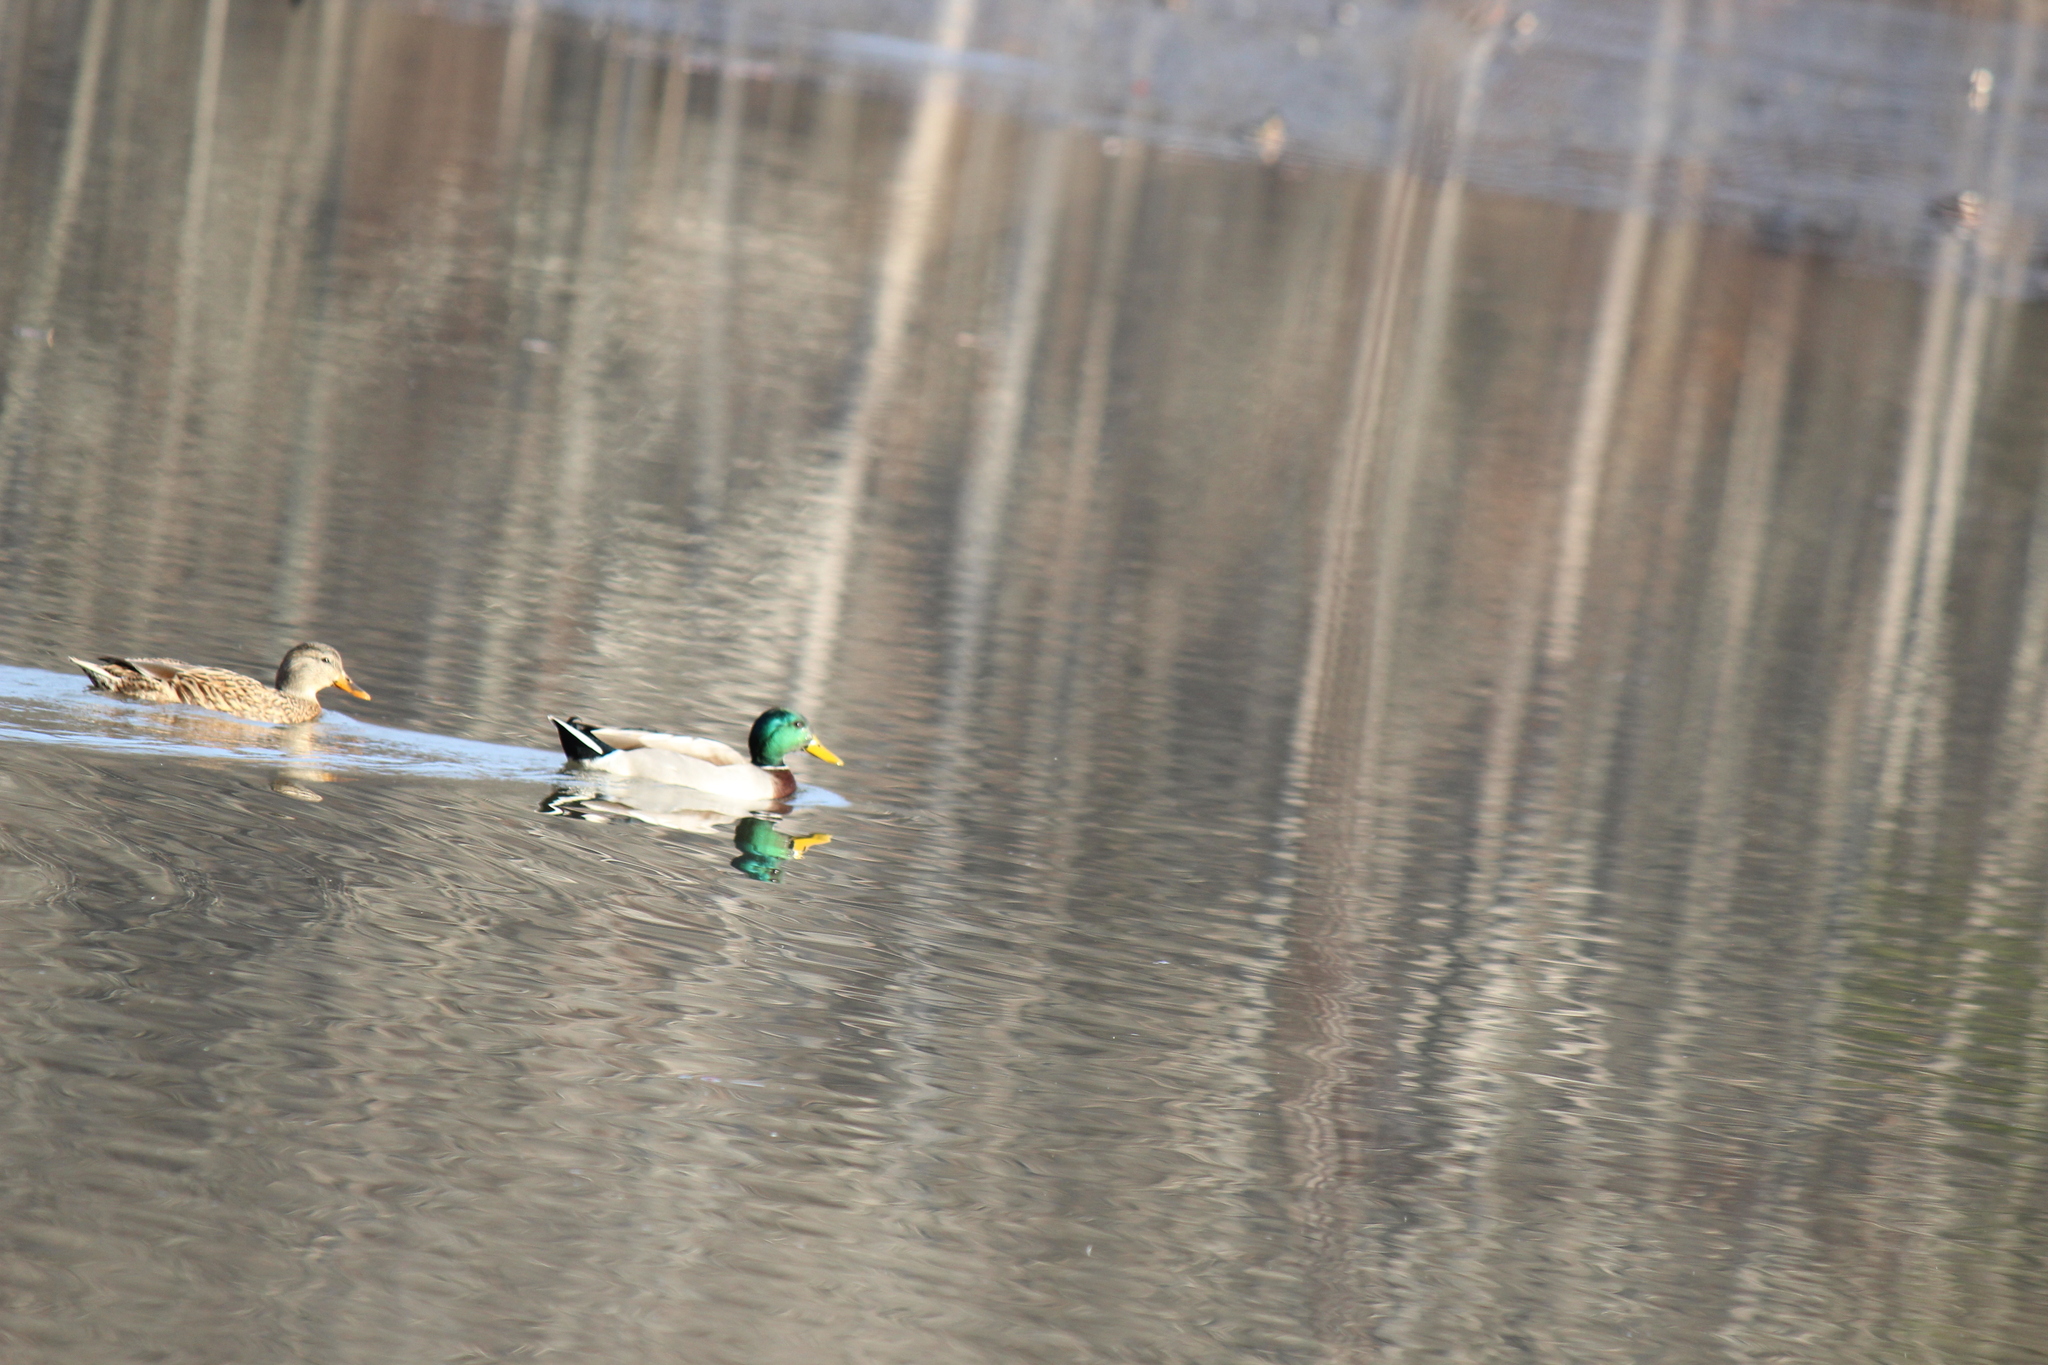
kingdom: Animalia
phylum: Chordata
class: Aves
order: Anseriformes
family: Anatidae
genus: Anas
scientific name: Anas platyrhynchos
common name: Mallard
